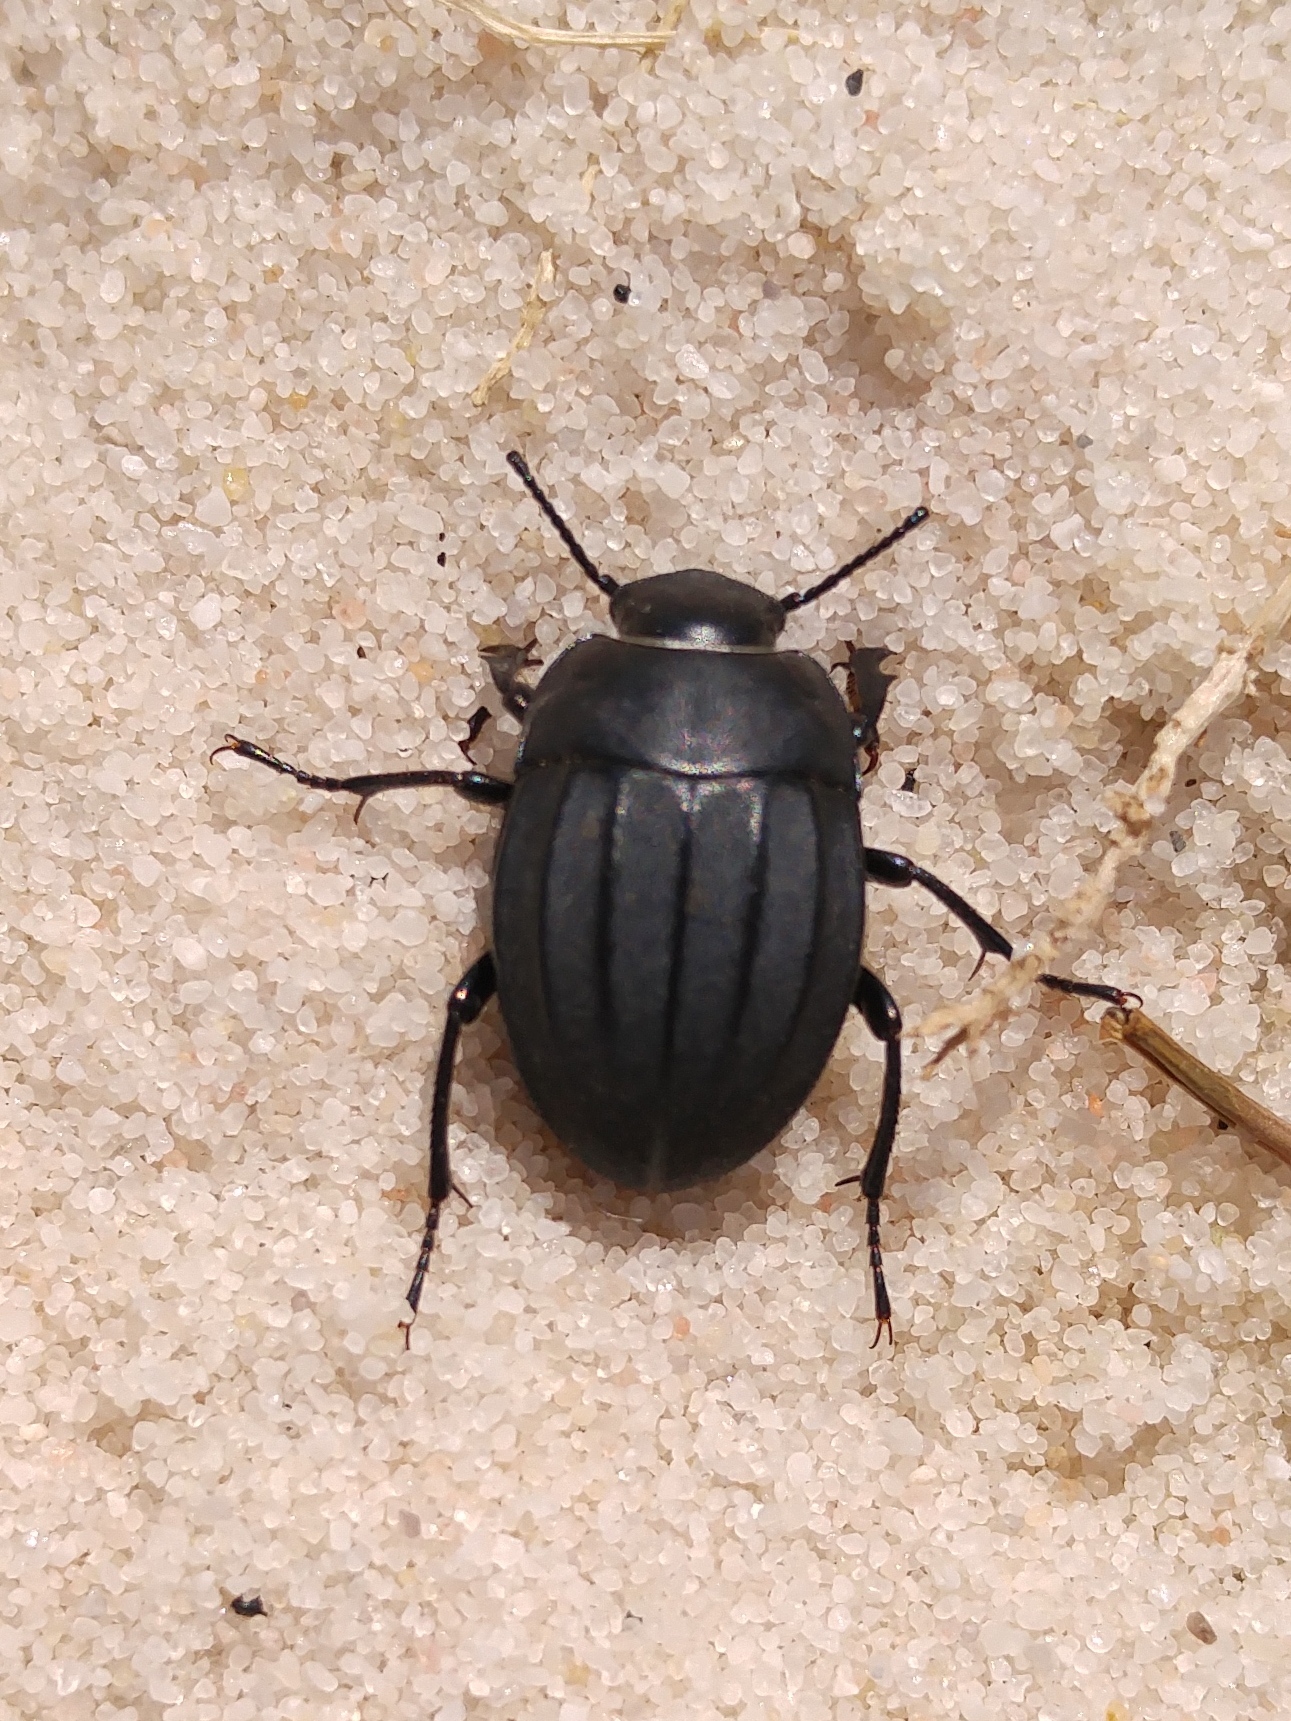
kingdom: Animalia
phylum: Arthropoda
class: Insecta
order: Coleoptera
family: Tenebrionidae
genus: Erodius
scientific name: Erodius emondi
